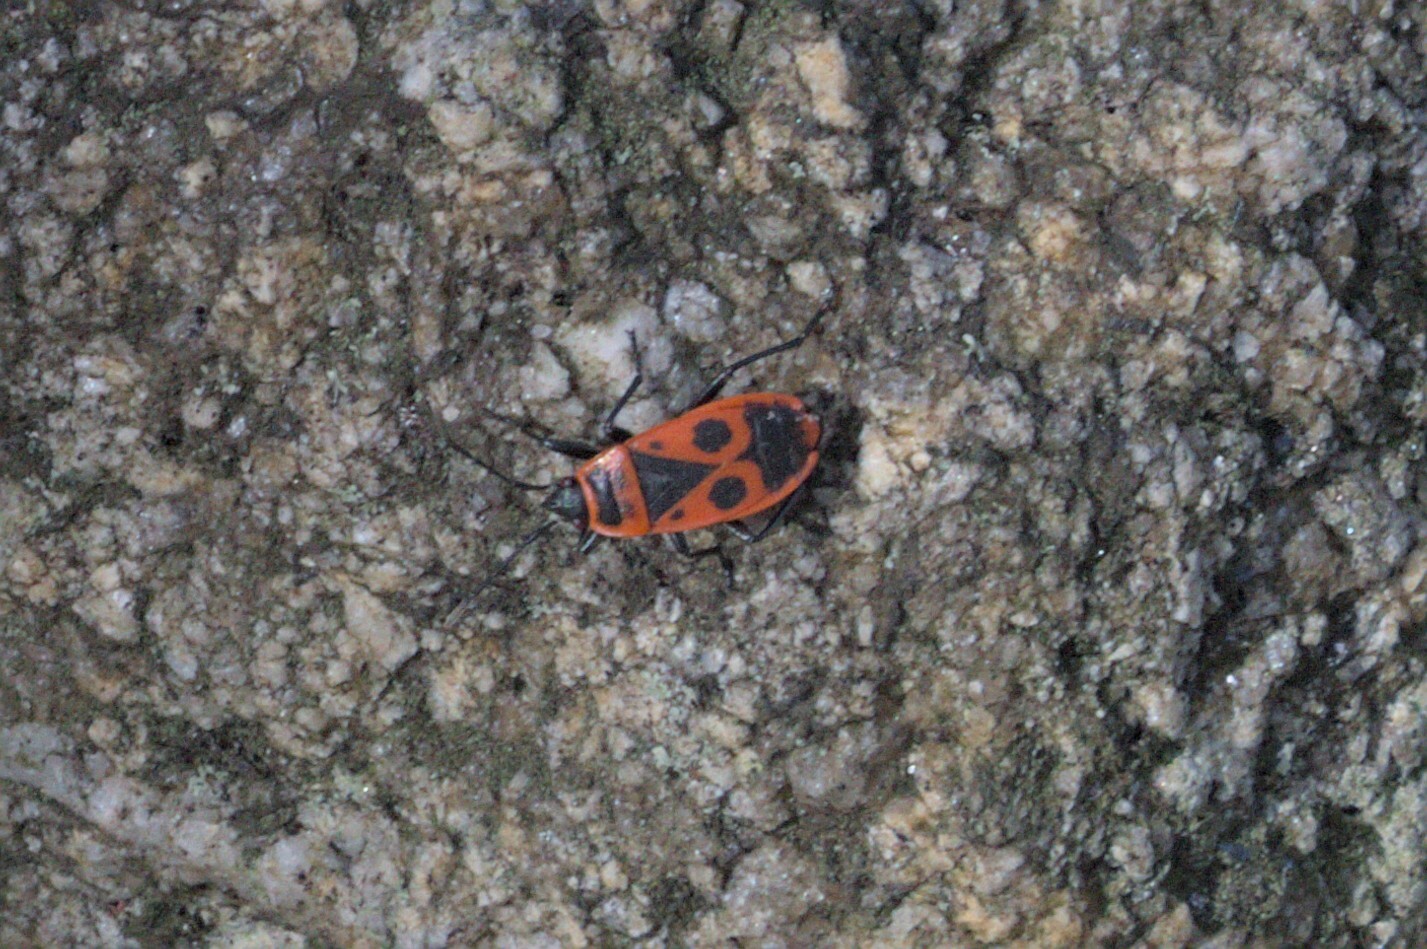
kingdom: Animalia
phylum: Arthropoda
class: Insecta
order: Hemiptera
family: Pyrrhocoridae
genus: Pyrrhocoris
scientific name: Pyrrhocoris apterus
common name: Firebug
